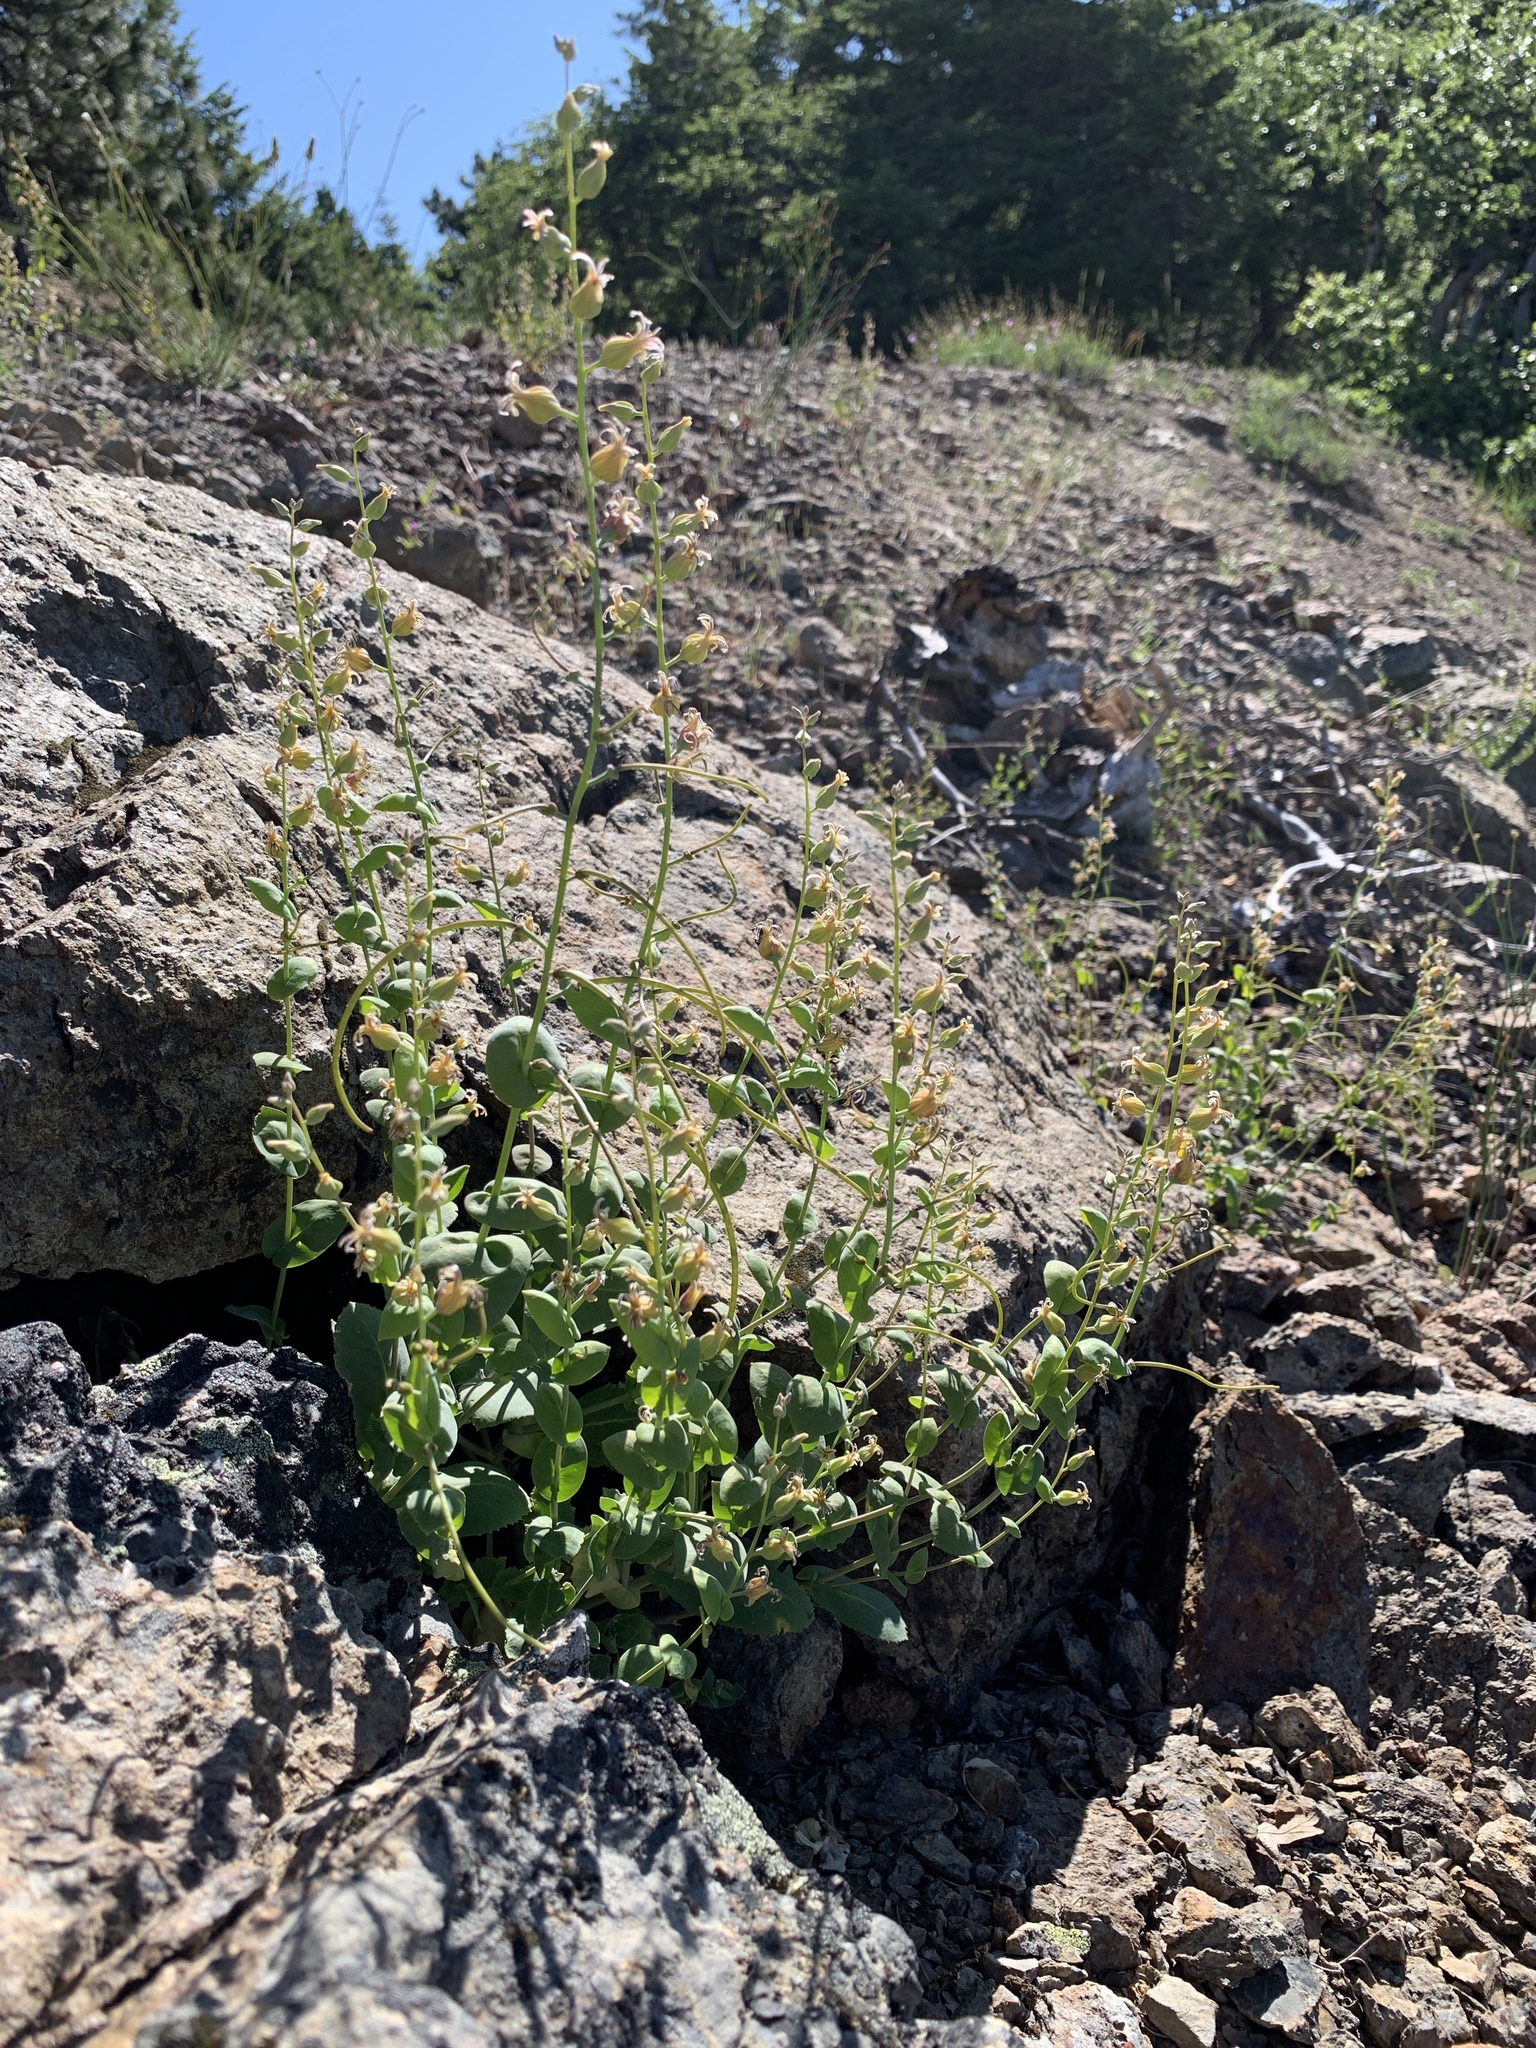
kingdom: Plantae
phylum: Tracheophyta
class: Magnoliopsida
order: Brassicales
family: Brassicaceae
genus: Streptanthus
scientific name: Streptanthus tortuosus
